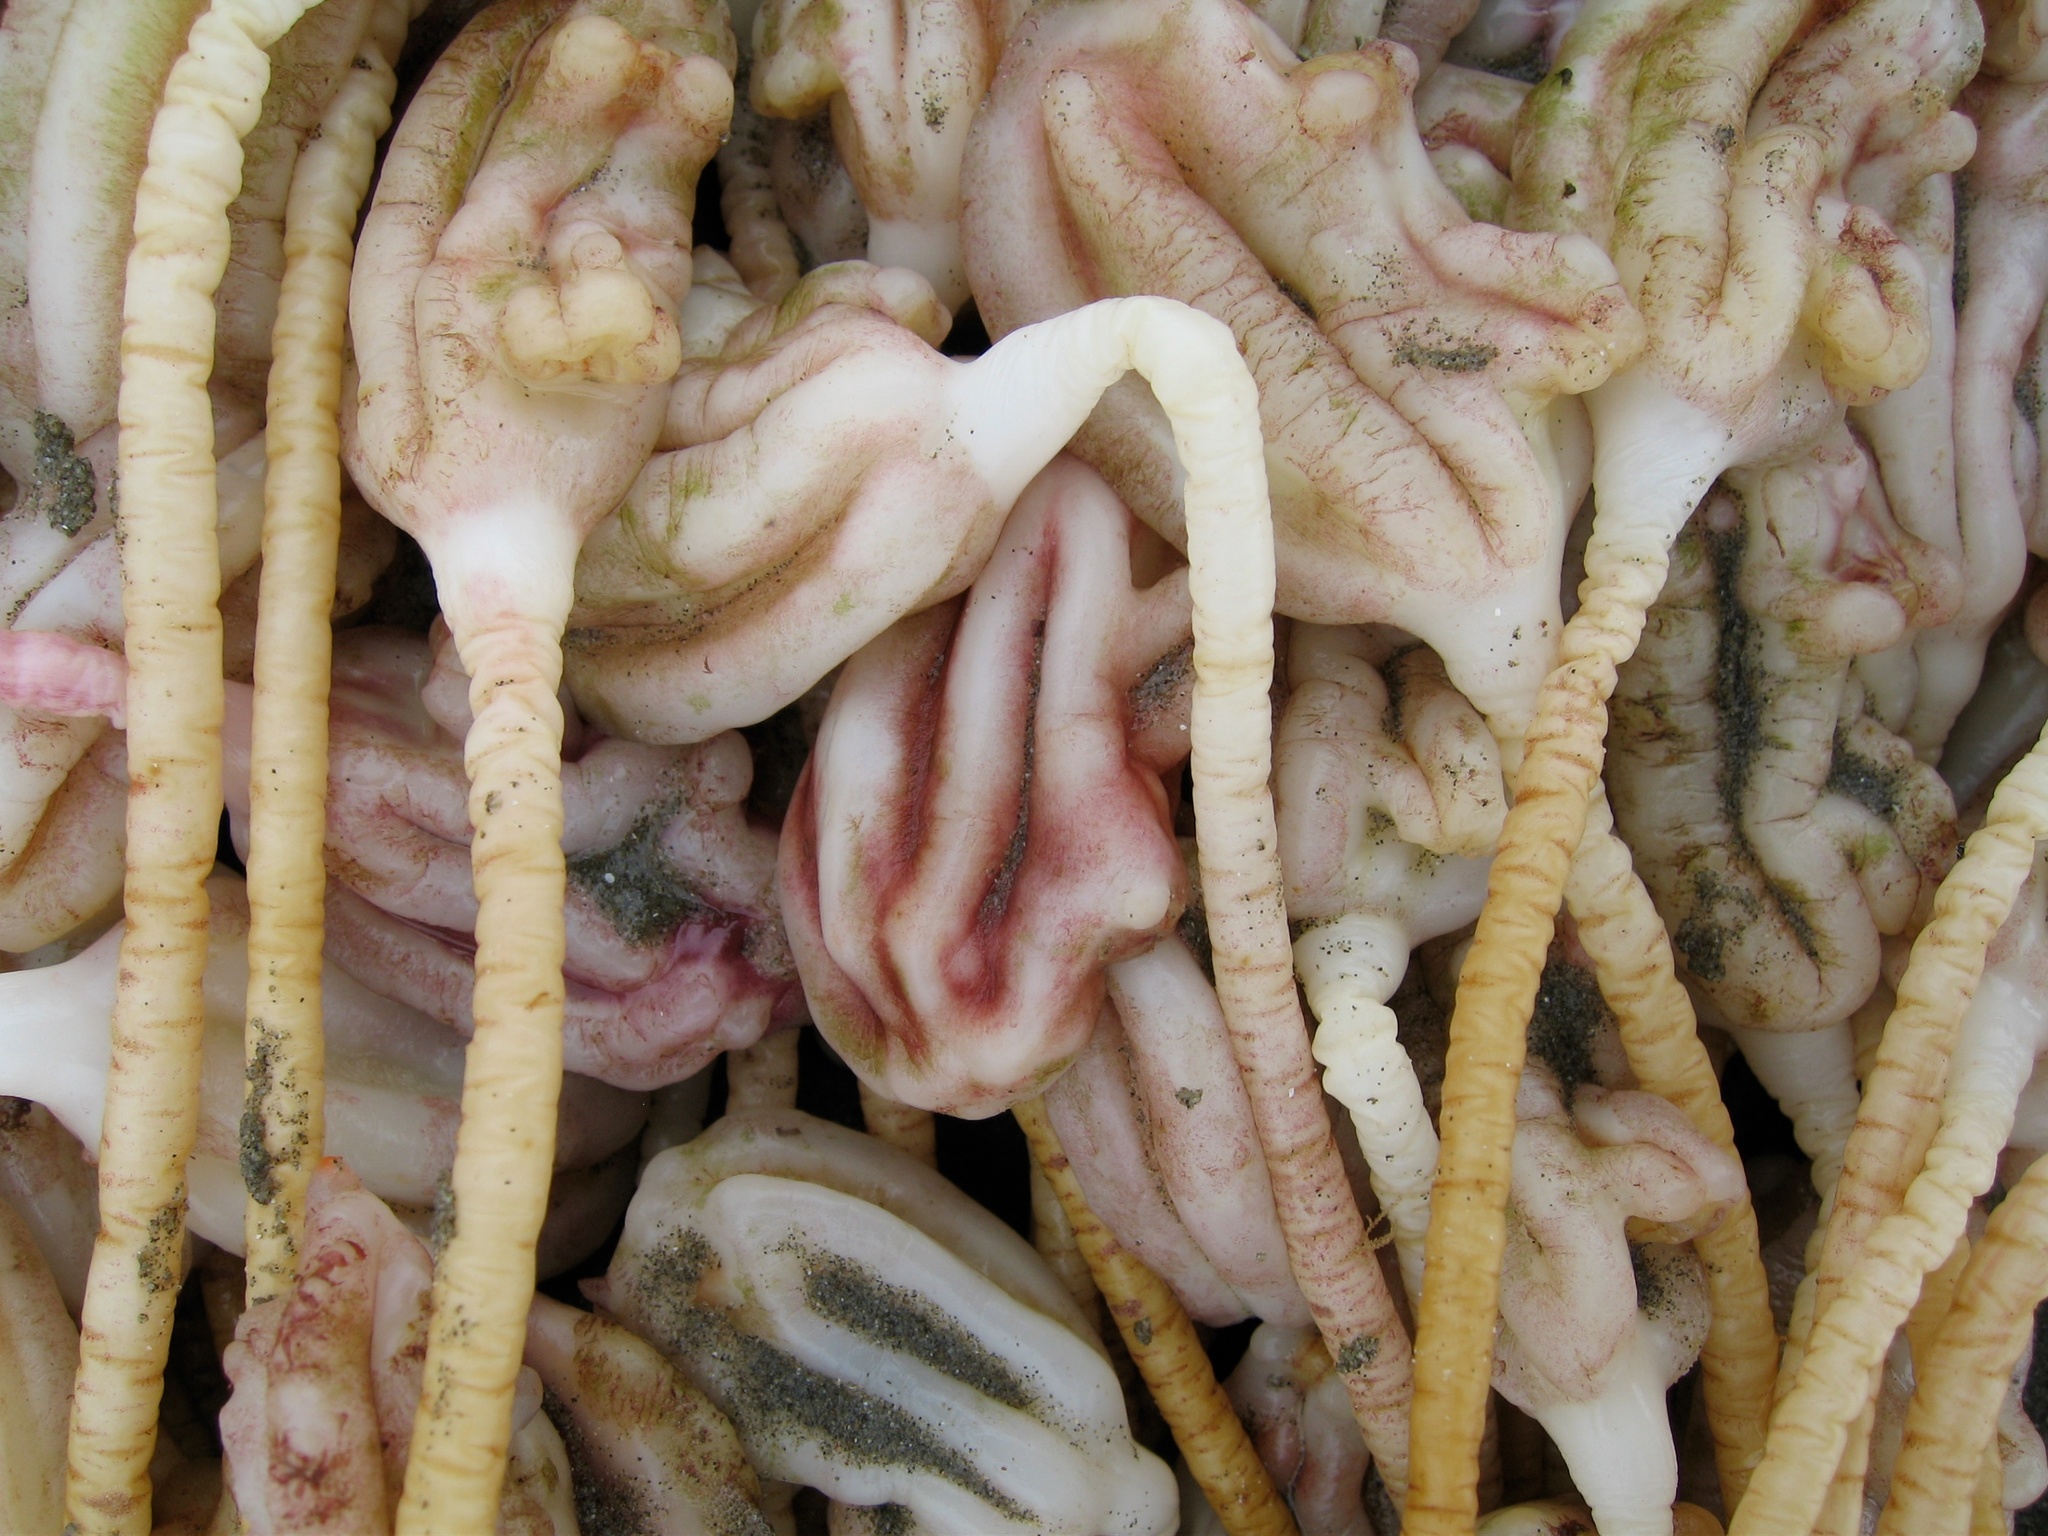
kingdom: Animalia
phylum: Chordata
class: Ascidiacea
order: Stolidobranchia
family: Pyuridae
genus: Pyura
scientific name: Pyura pachydermatina
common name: Sea tulip
